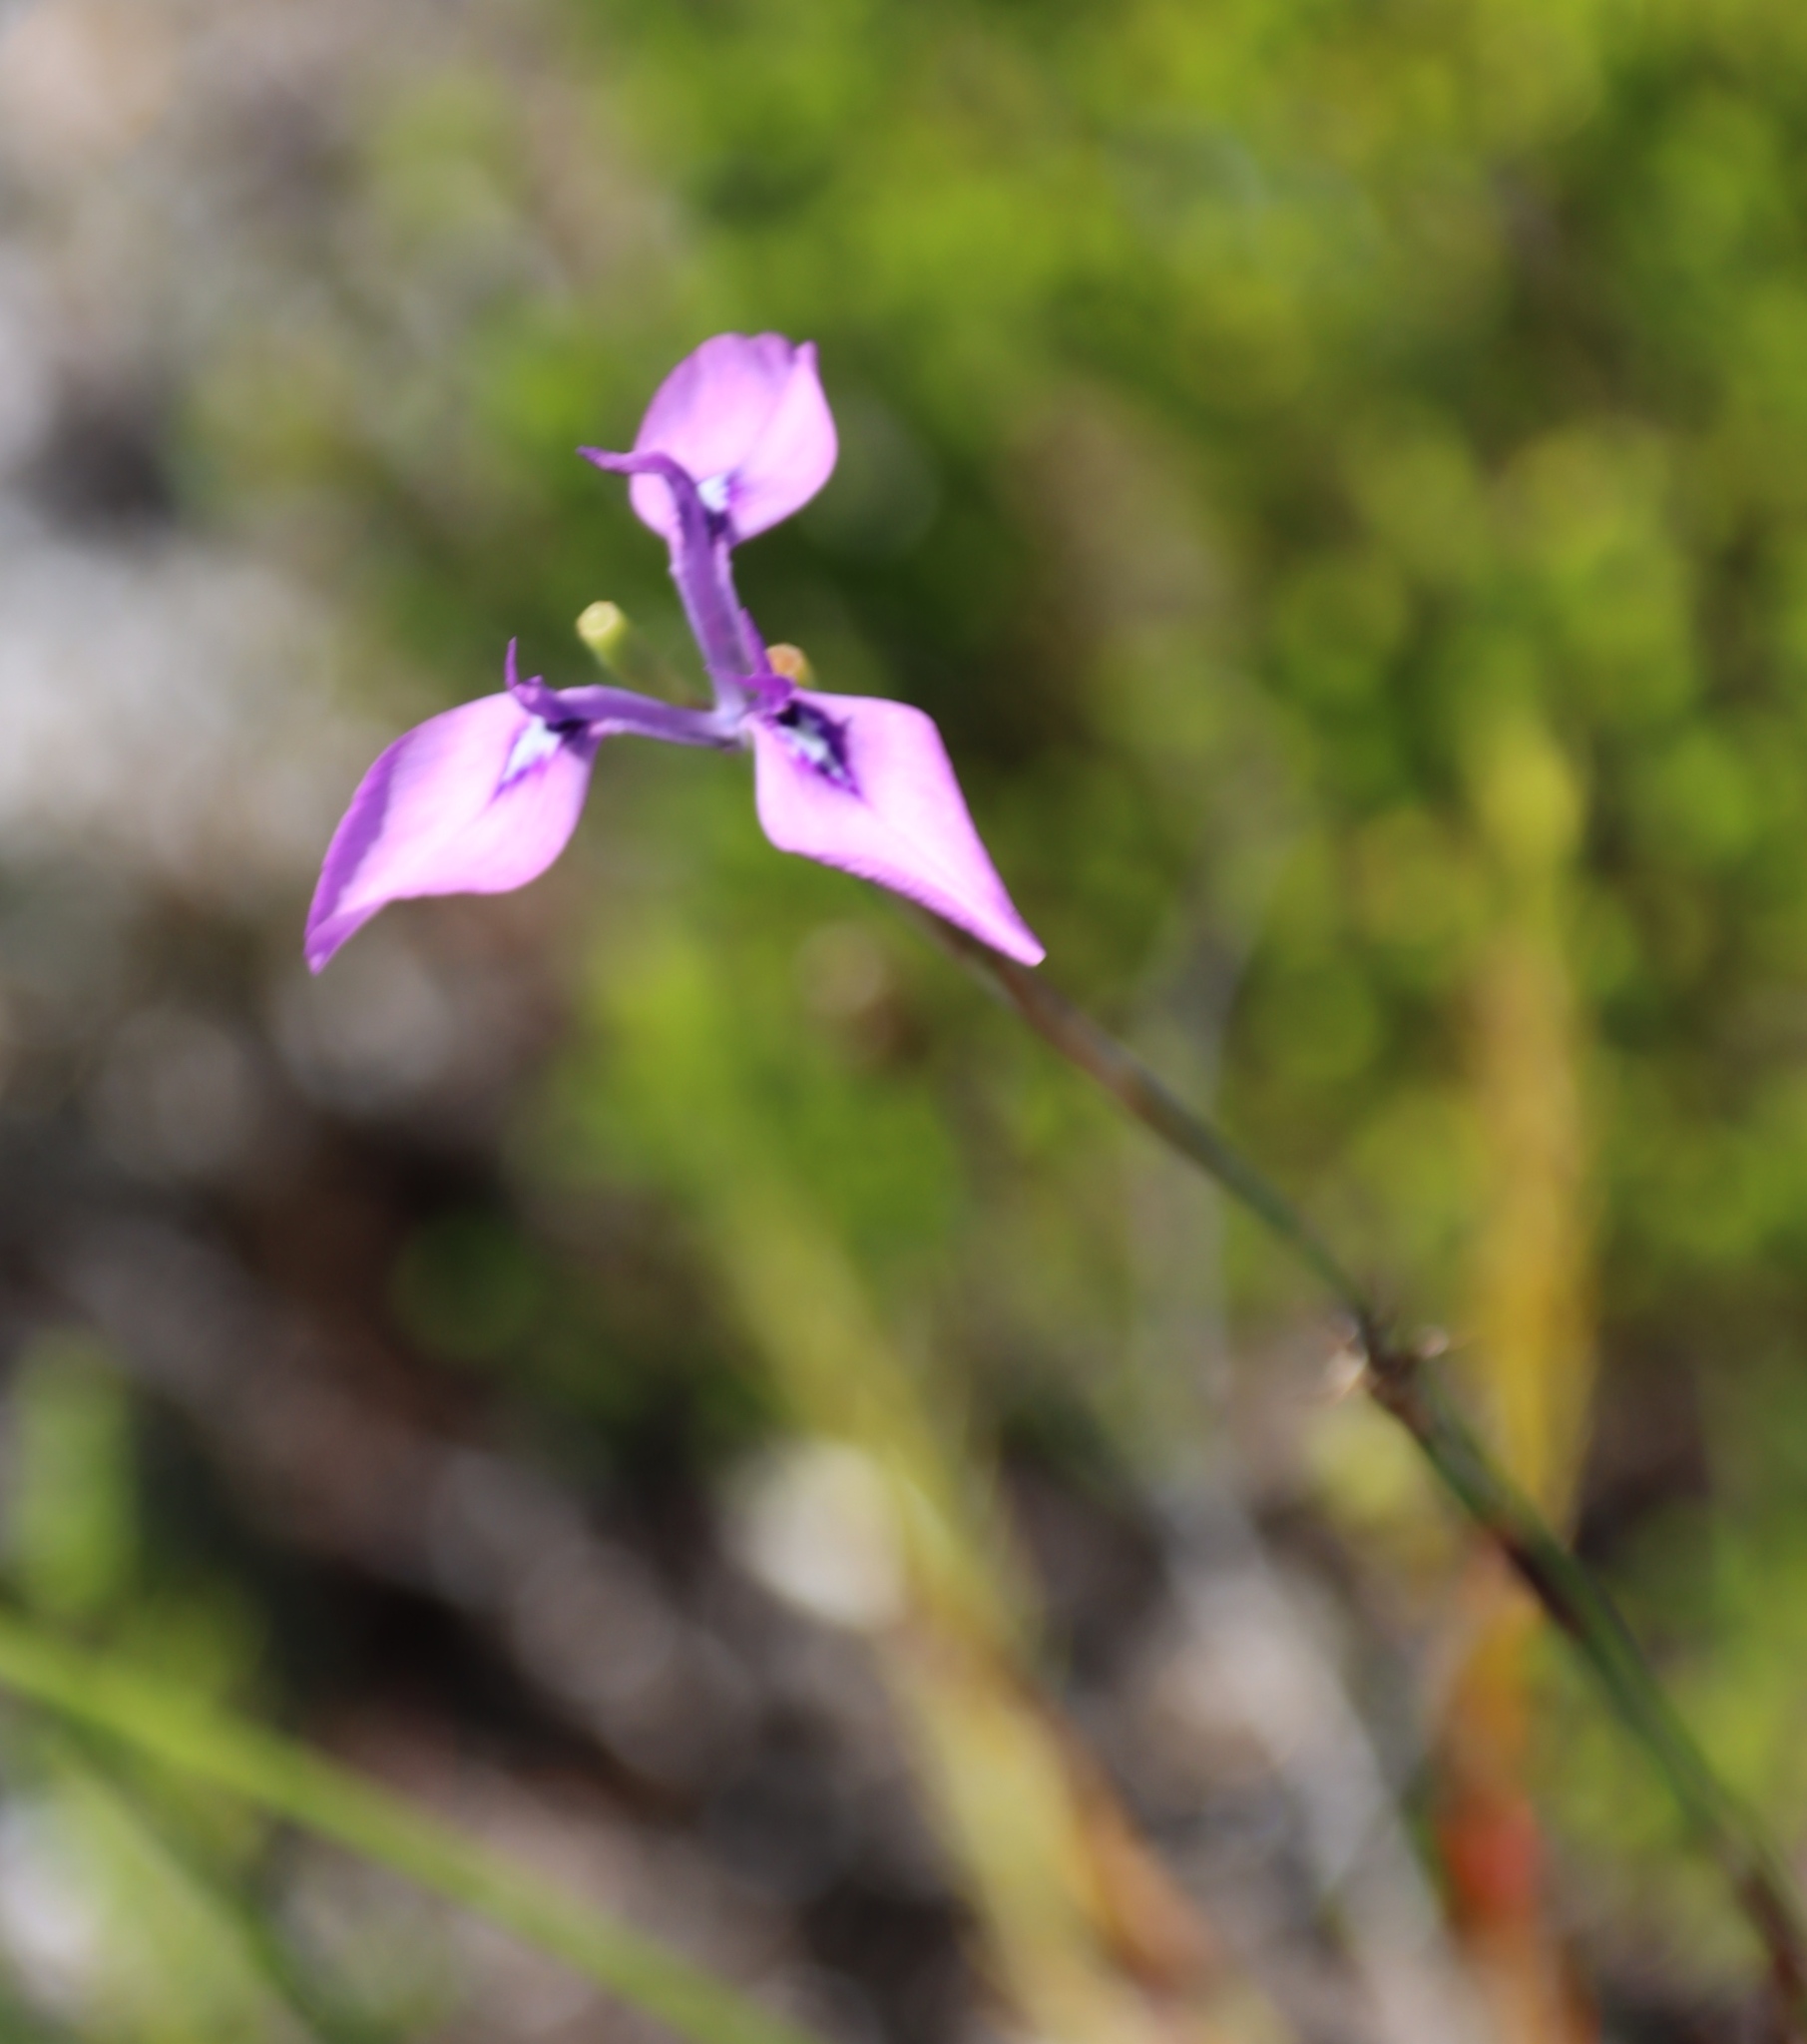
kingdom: Plantae
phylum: Tracheophyta
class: Liliopsida
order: Asparagales
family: Iridaceae
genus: Moraea
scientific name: Moraea tripetala
